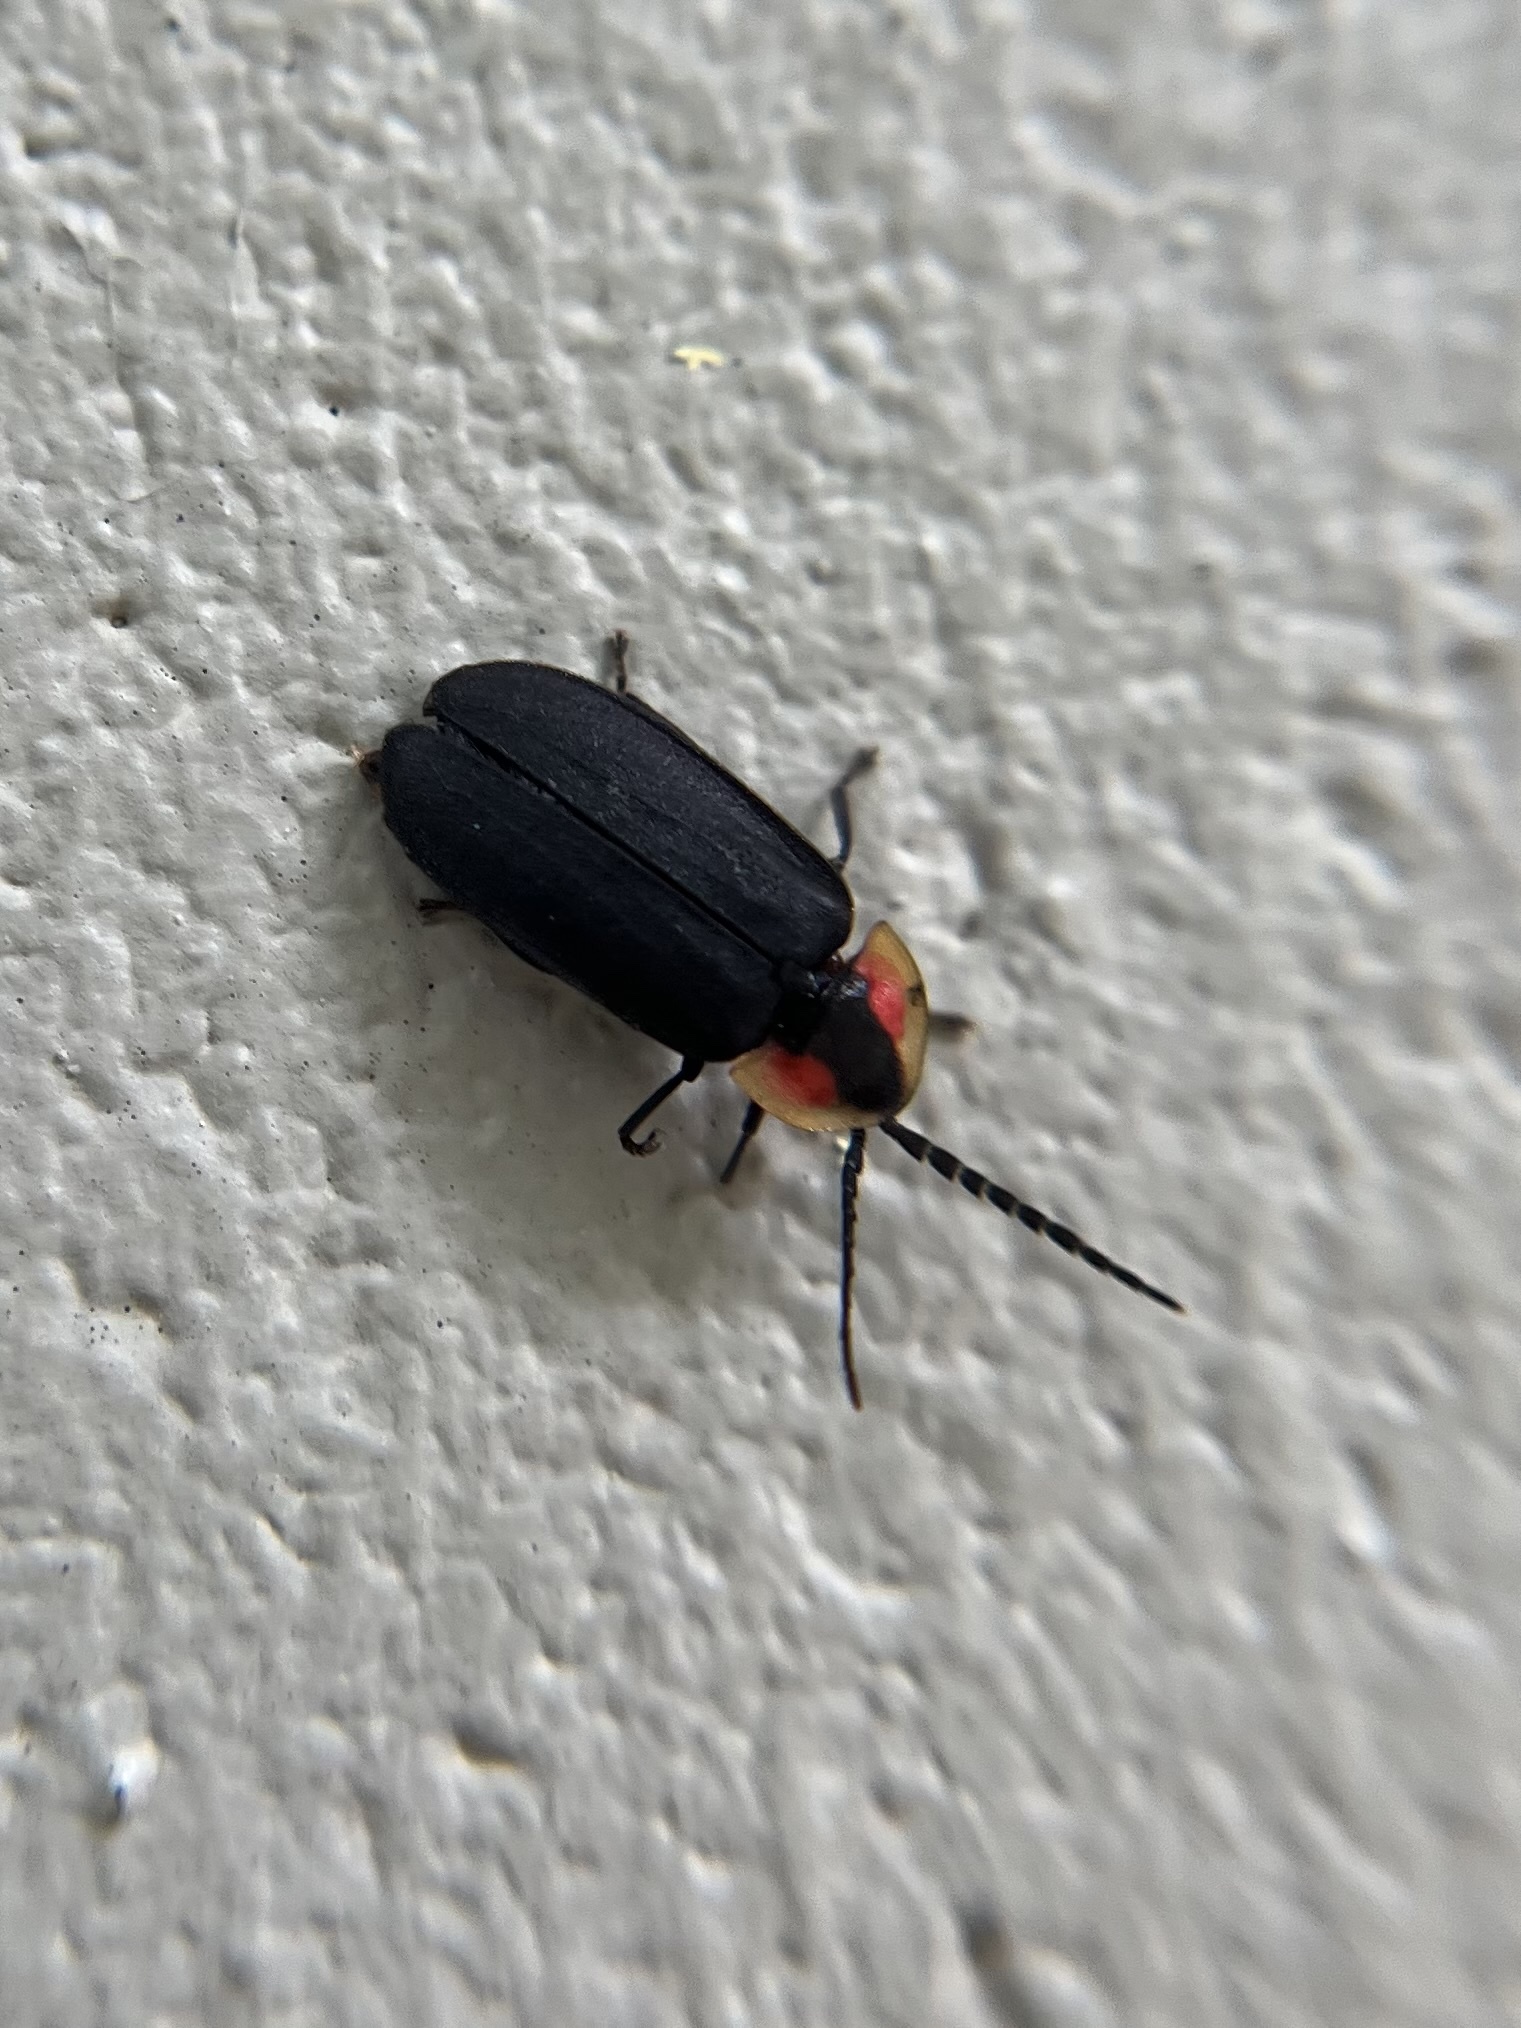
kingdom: Animalia
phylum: Arthropoda
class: Insecta
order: Coleoptera
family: Lampyridae
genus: Lucidota
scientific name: Lucidota atra
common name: Black firefly
